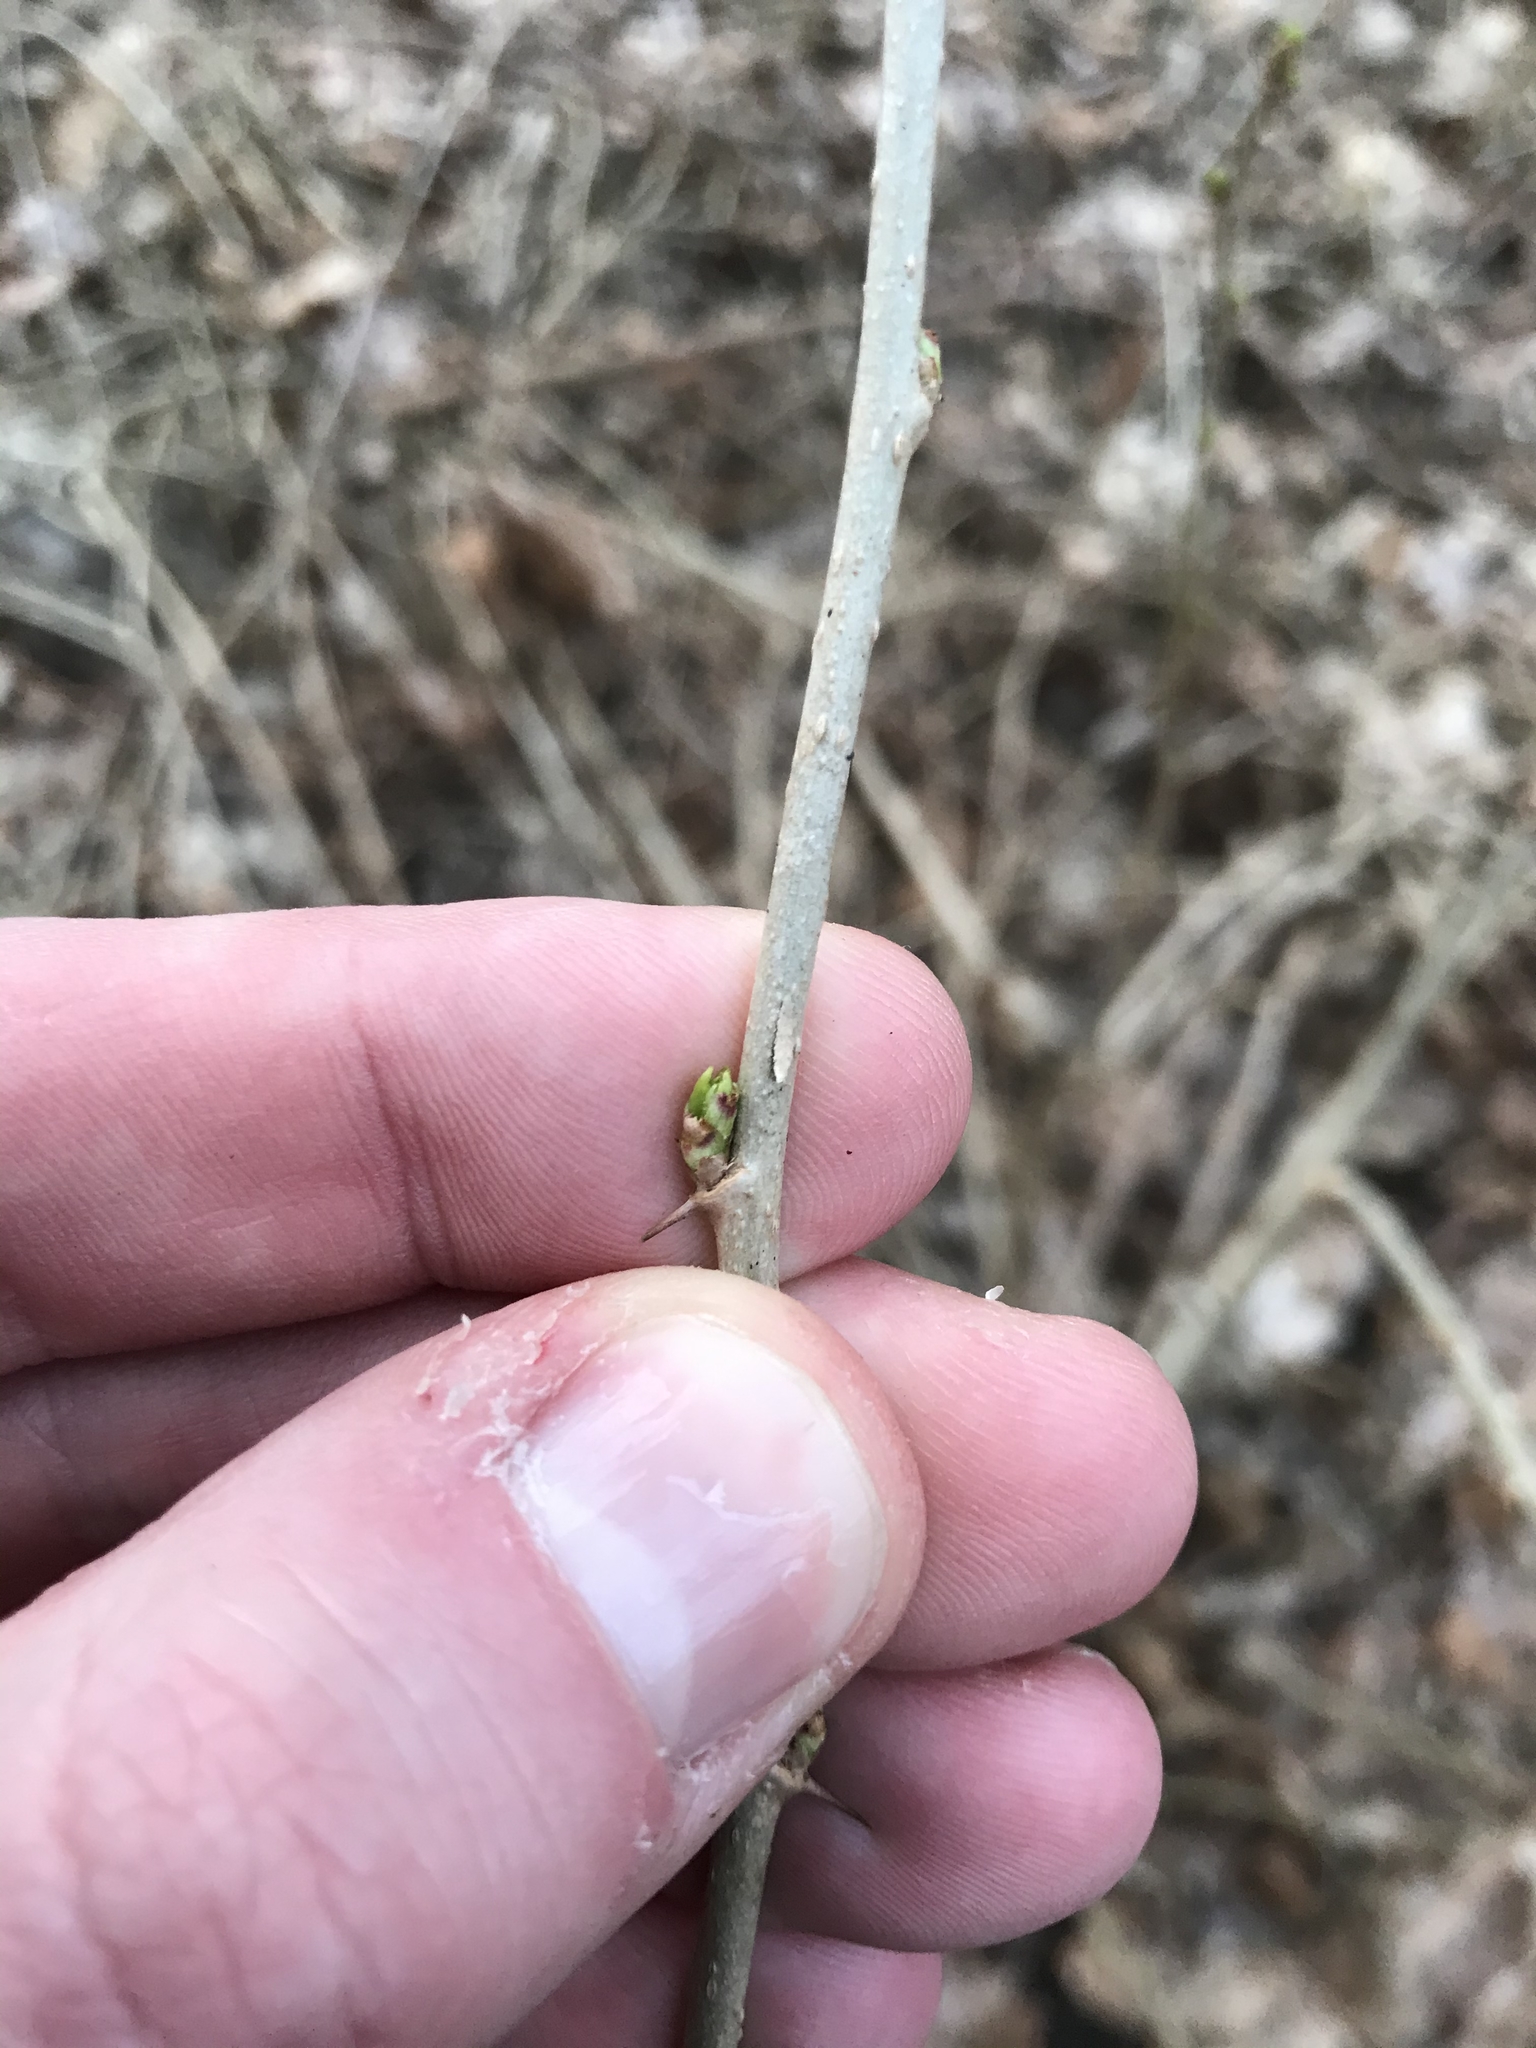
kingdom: Plantae
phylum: Tracheophyta
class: Magnoliopsida
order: Apiales
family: Araliaceae
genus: Eleutherococcus
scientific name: Eleutherococcus sieboldianus
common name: Ginseng
